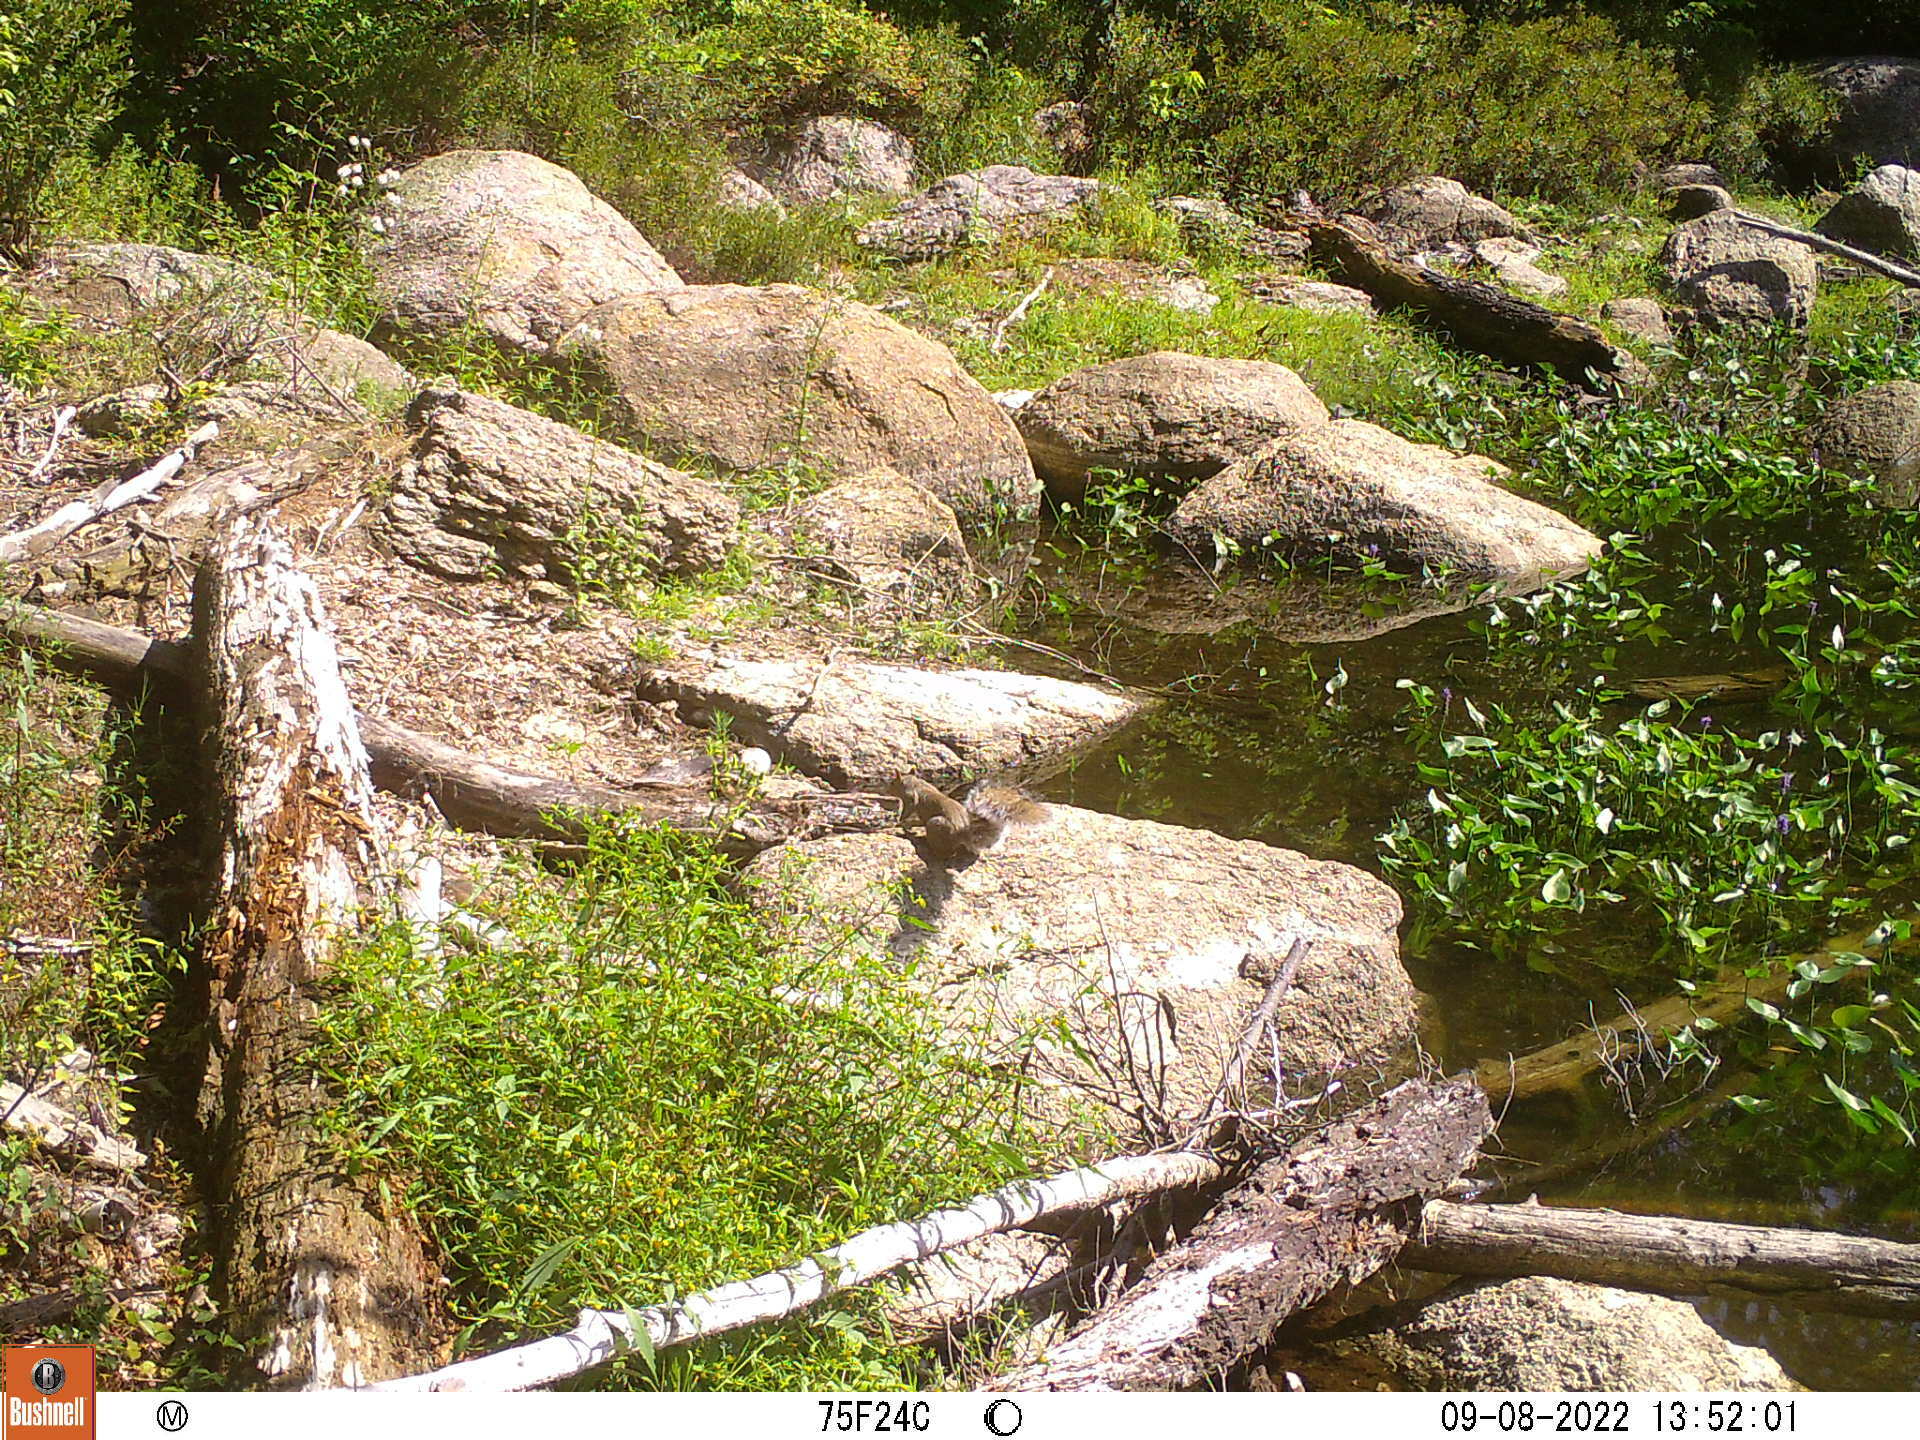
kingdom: Animalia
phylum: Chordata
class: Mammalia
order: Rodentia
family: Sciuridae
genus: Sciurus
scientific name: Sciurus carolinensis
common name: Eastern gray squirrel
